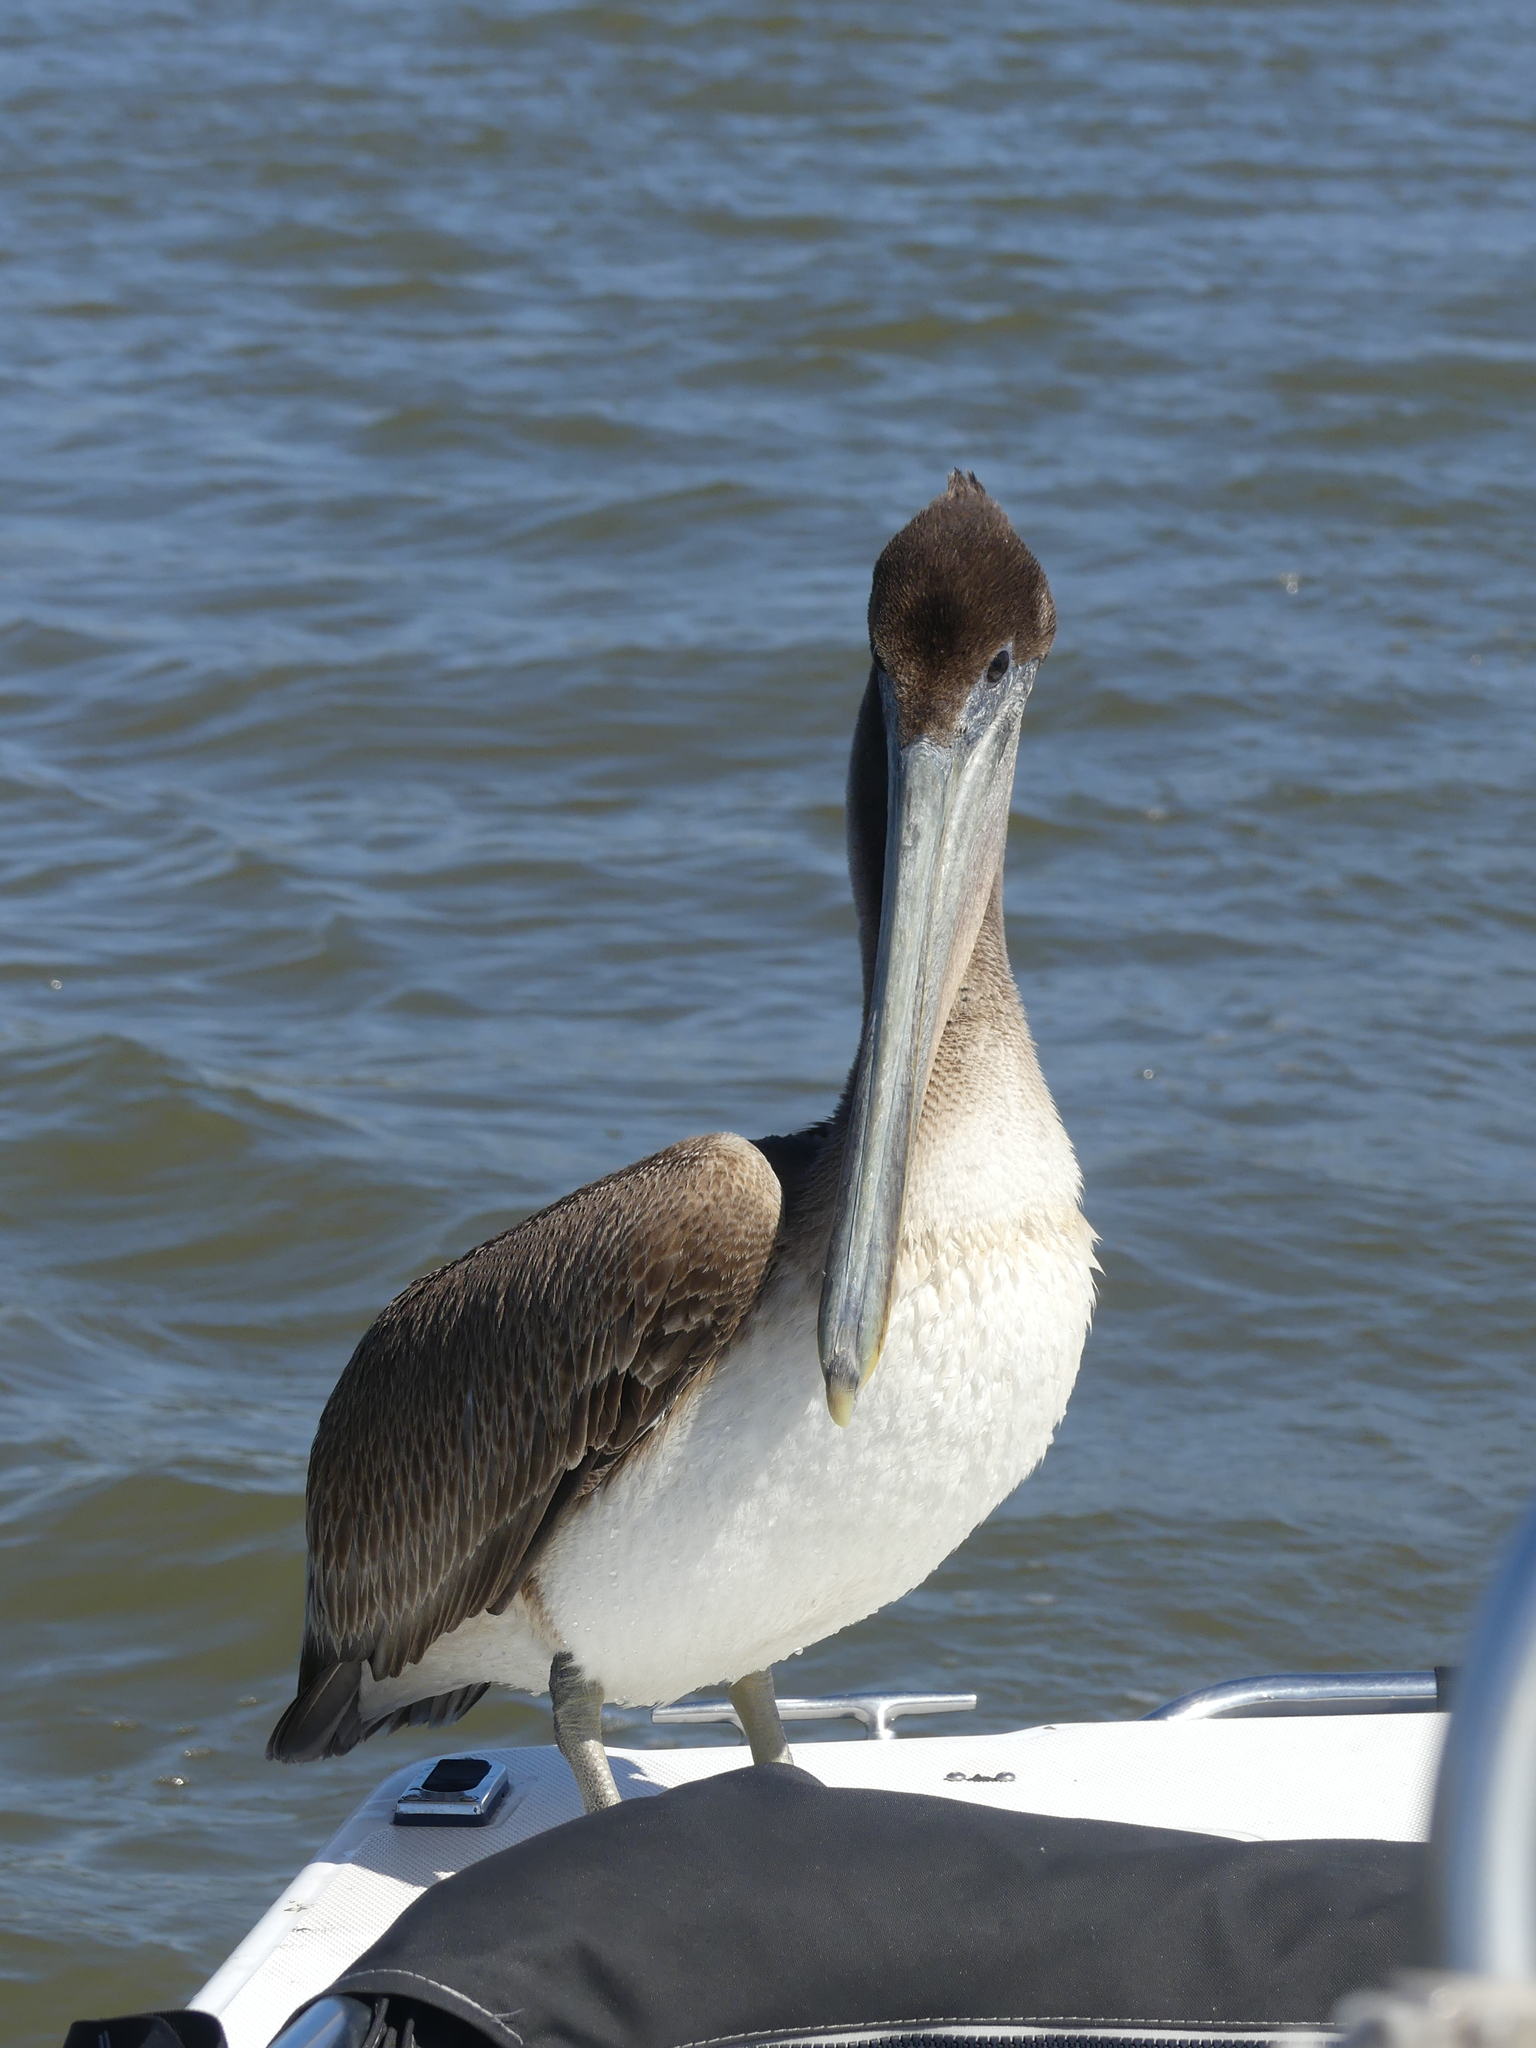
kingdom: Animalia
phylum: Chordata
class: Aves
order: Pelecaniformes
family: Pelecanidae
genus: Pelecanus
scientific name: Pelecanus occidentalis
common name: Brown pelican
